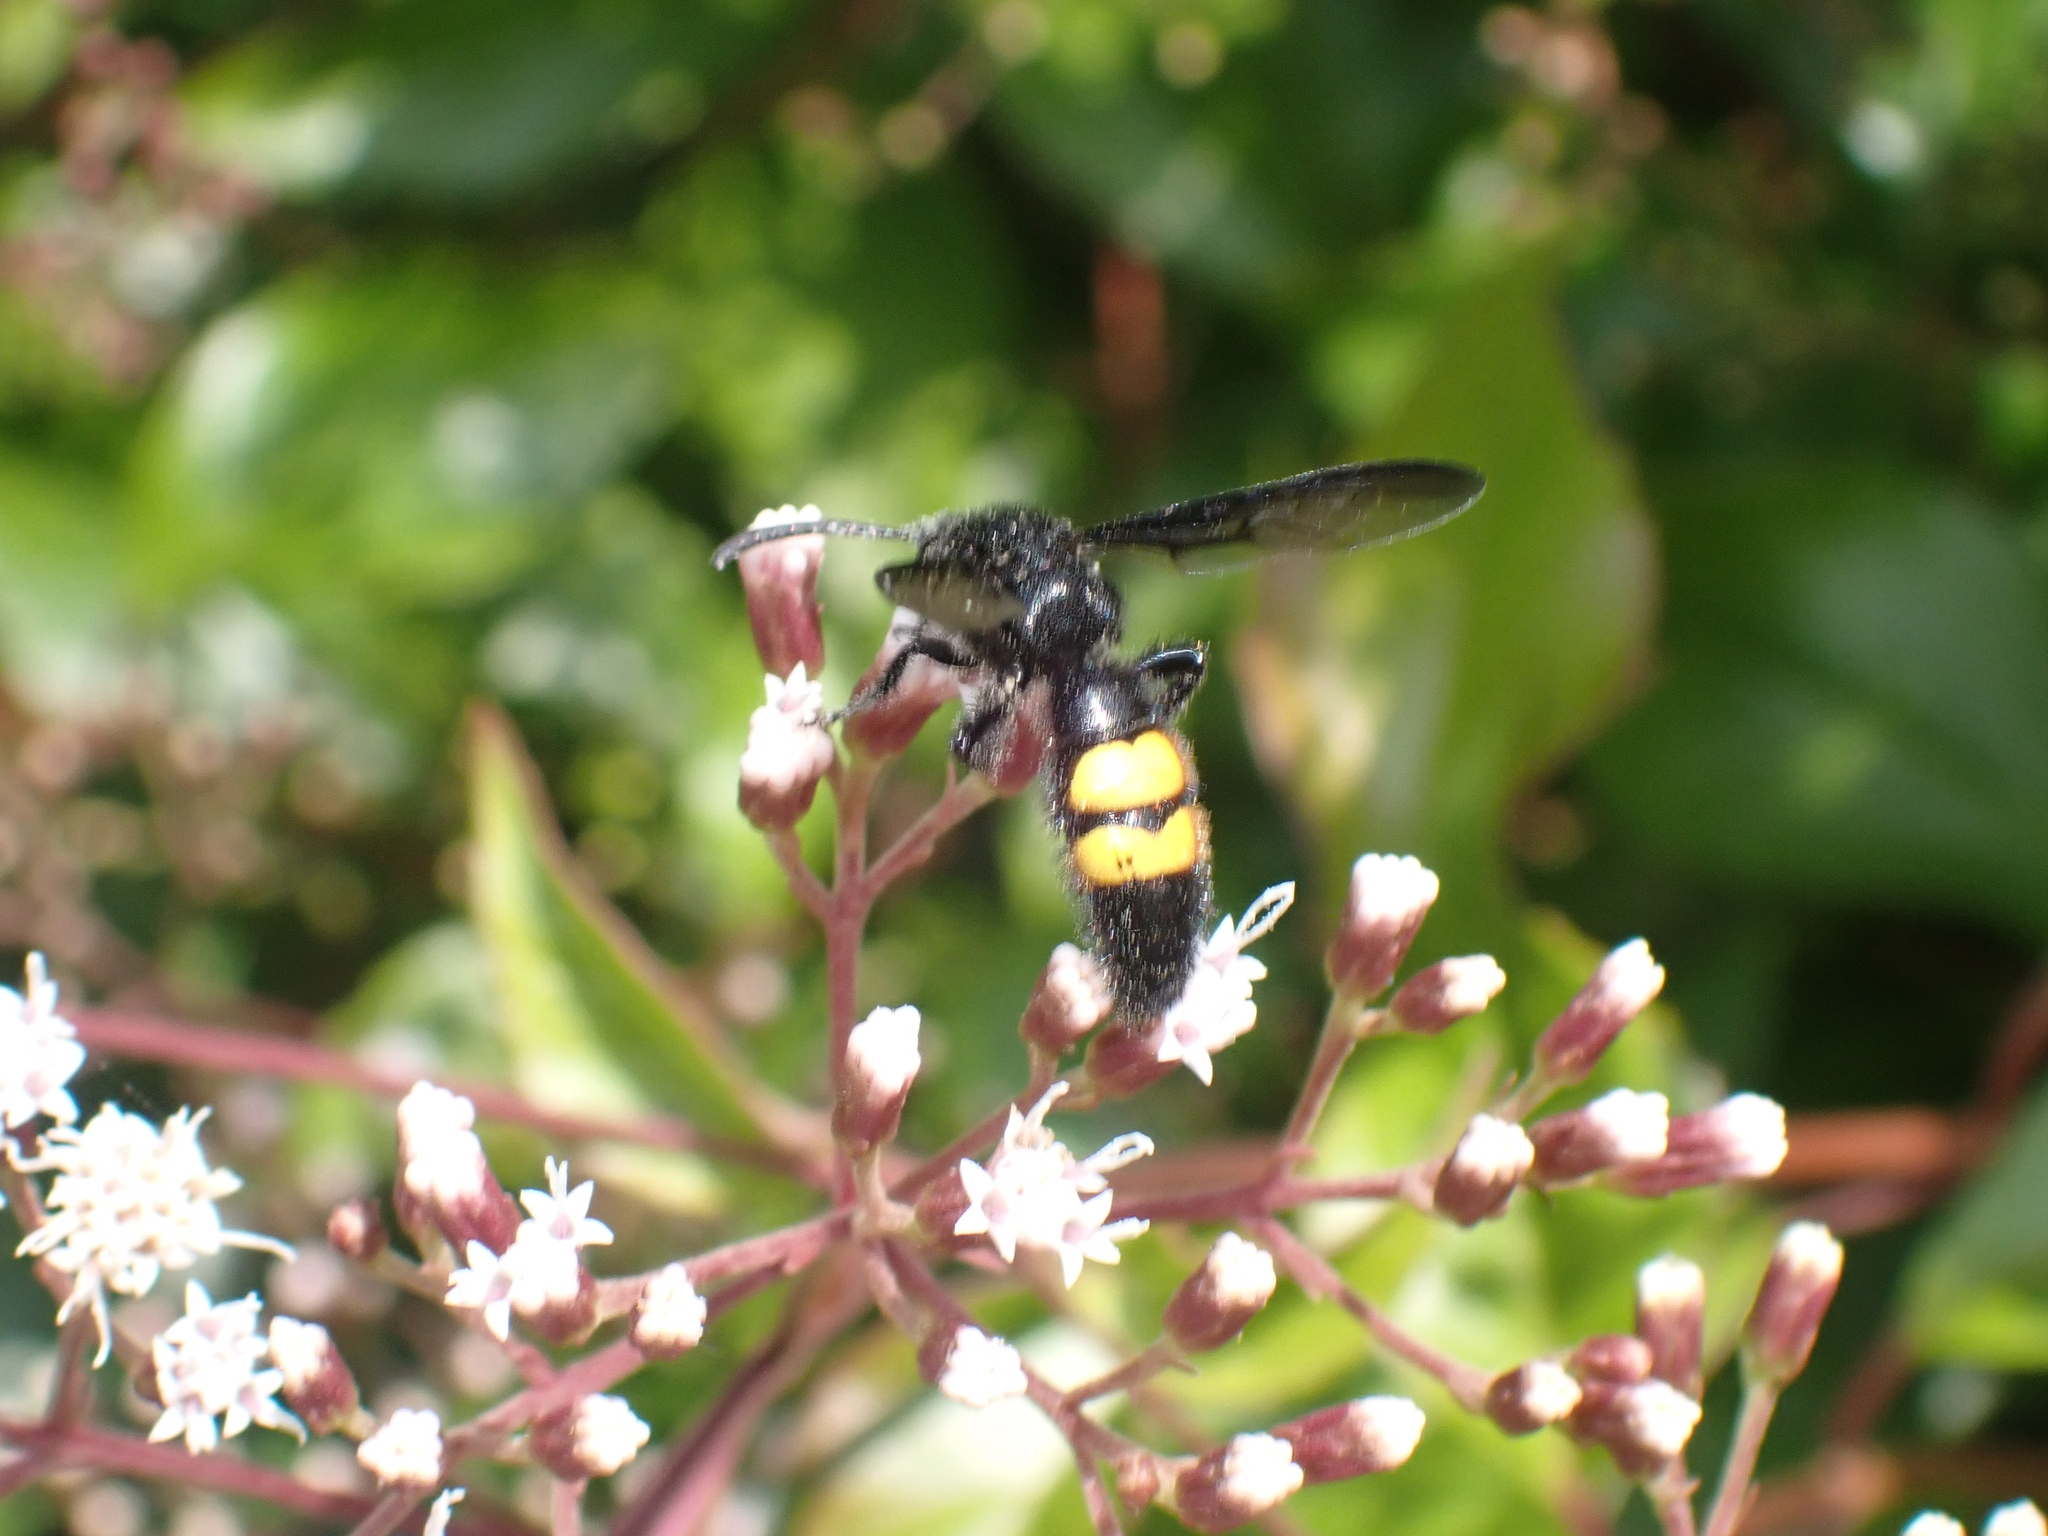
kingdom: Animalia
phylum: Arthropoda
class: Insecta
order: Hymenoptera
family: Scoliidae
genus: Scolia
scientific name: Scolia hirta
